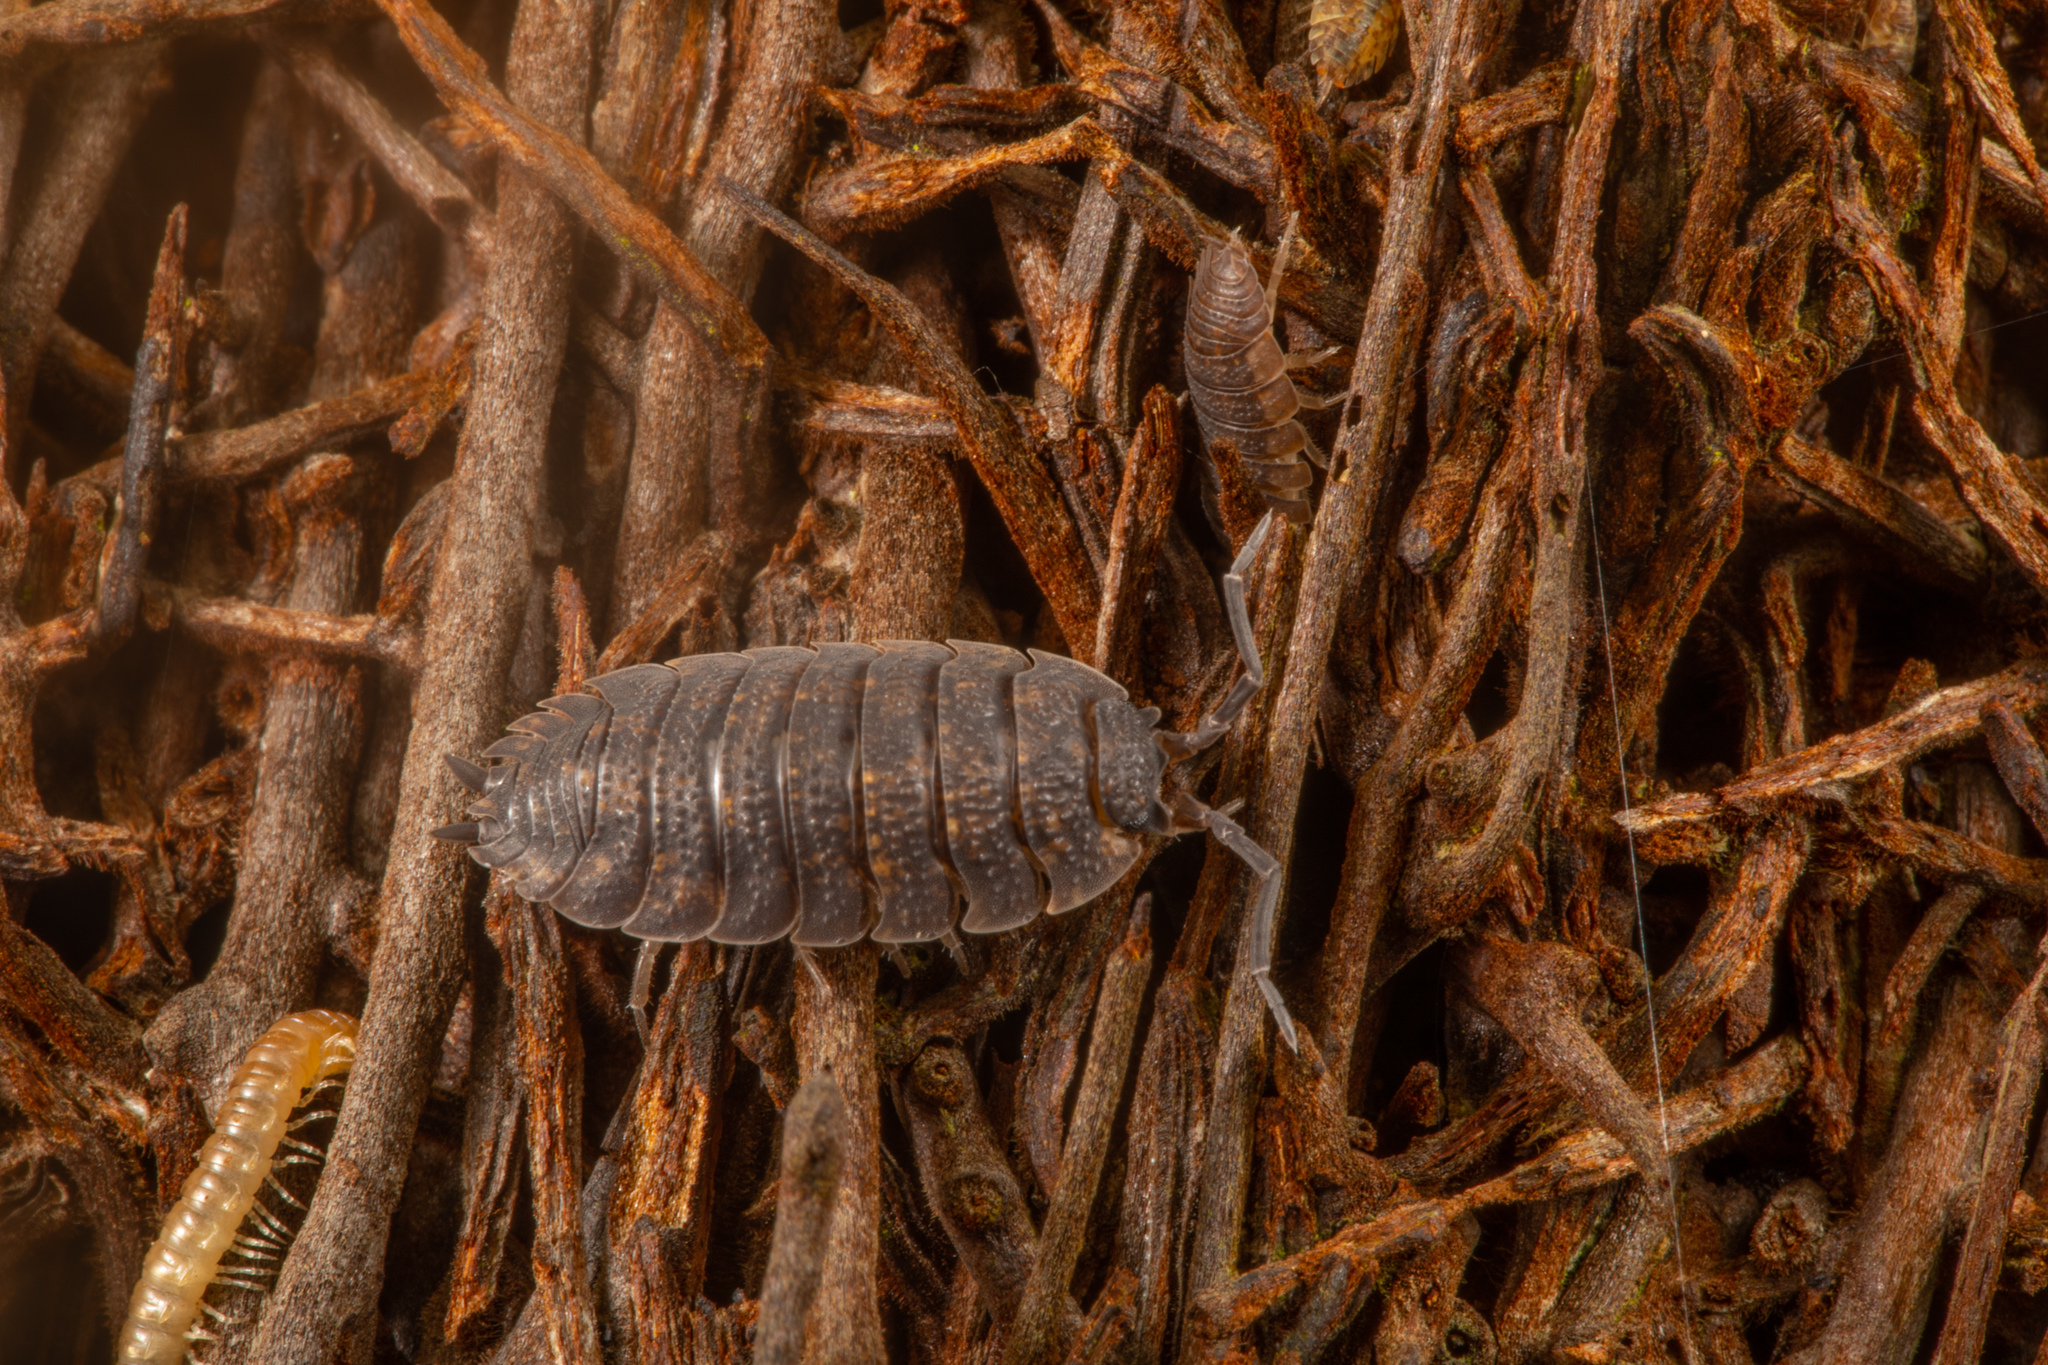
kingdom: Animalia
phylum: Arthropoda
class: Malacostraca
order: Isopoda
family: Porcellionidae
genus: Porcellio
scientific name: Porcellio scaber
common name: Common rough woodlouse
